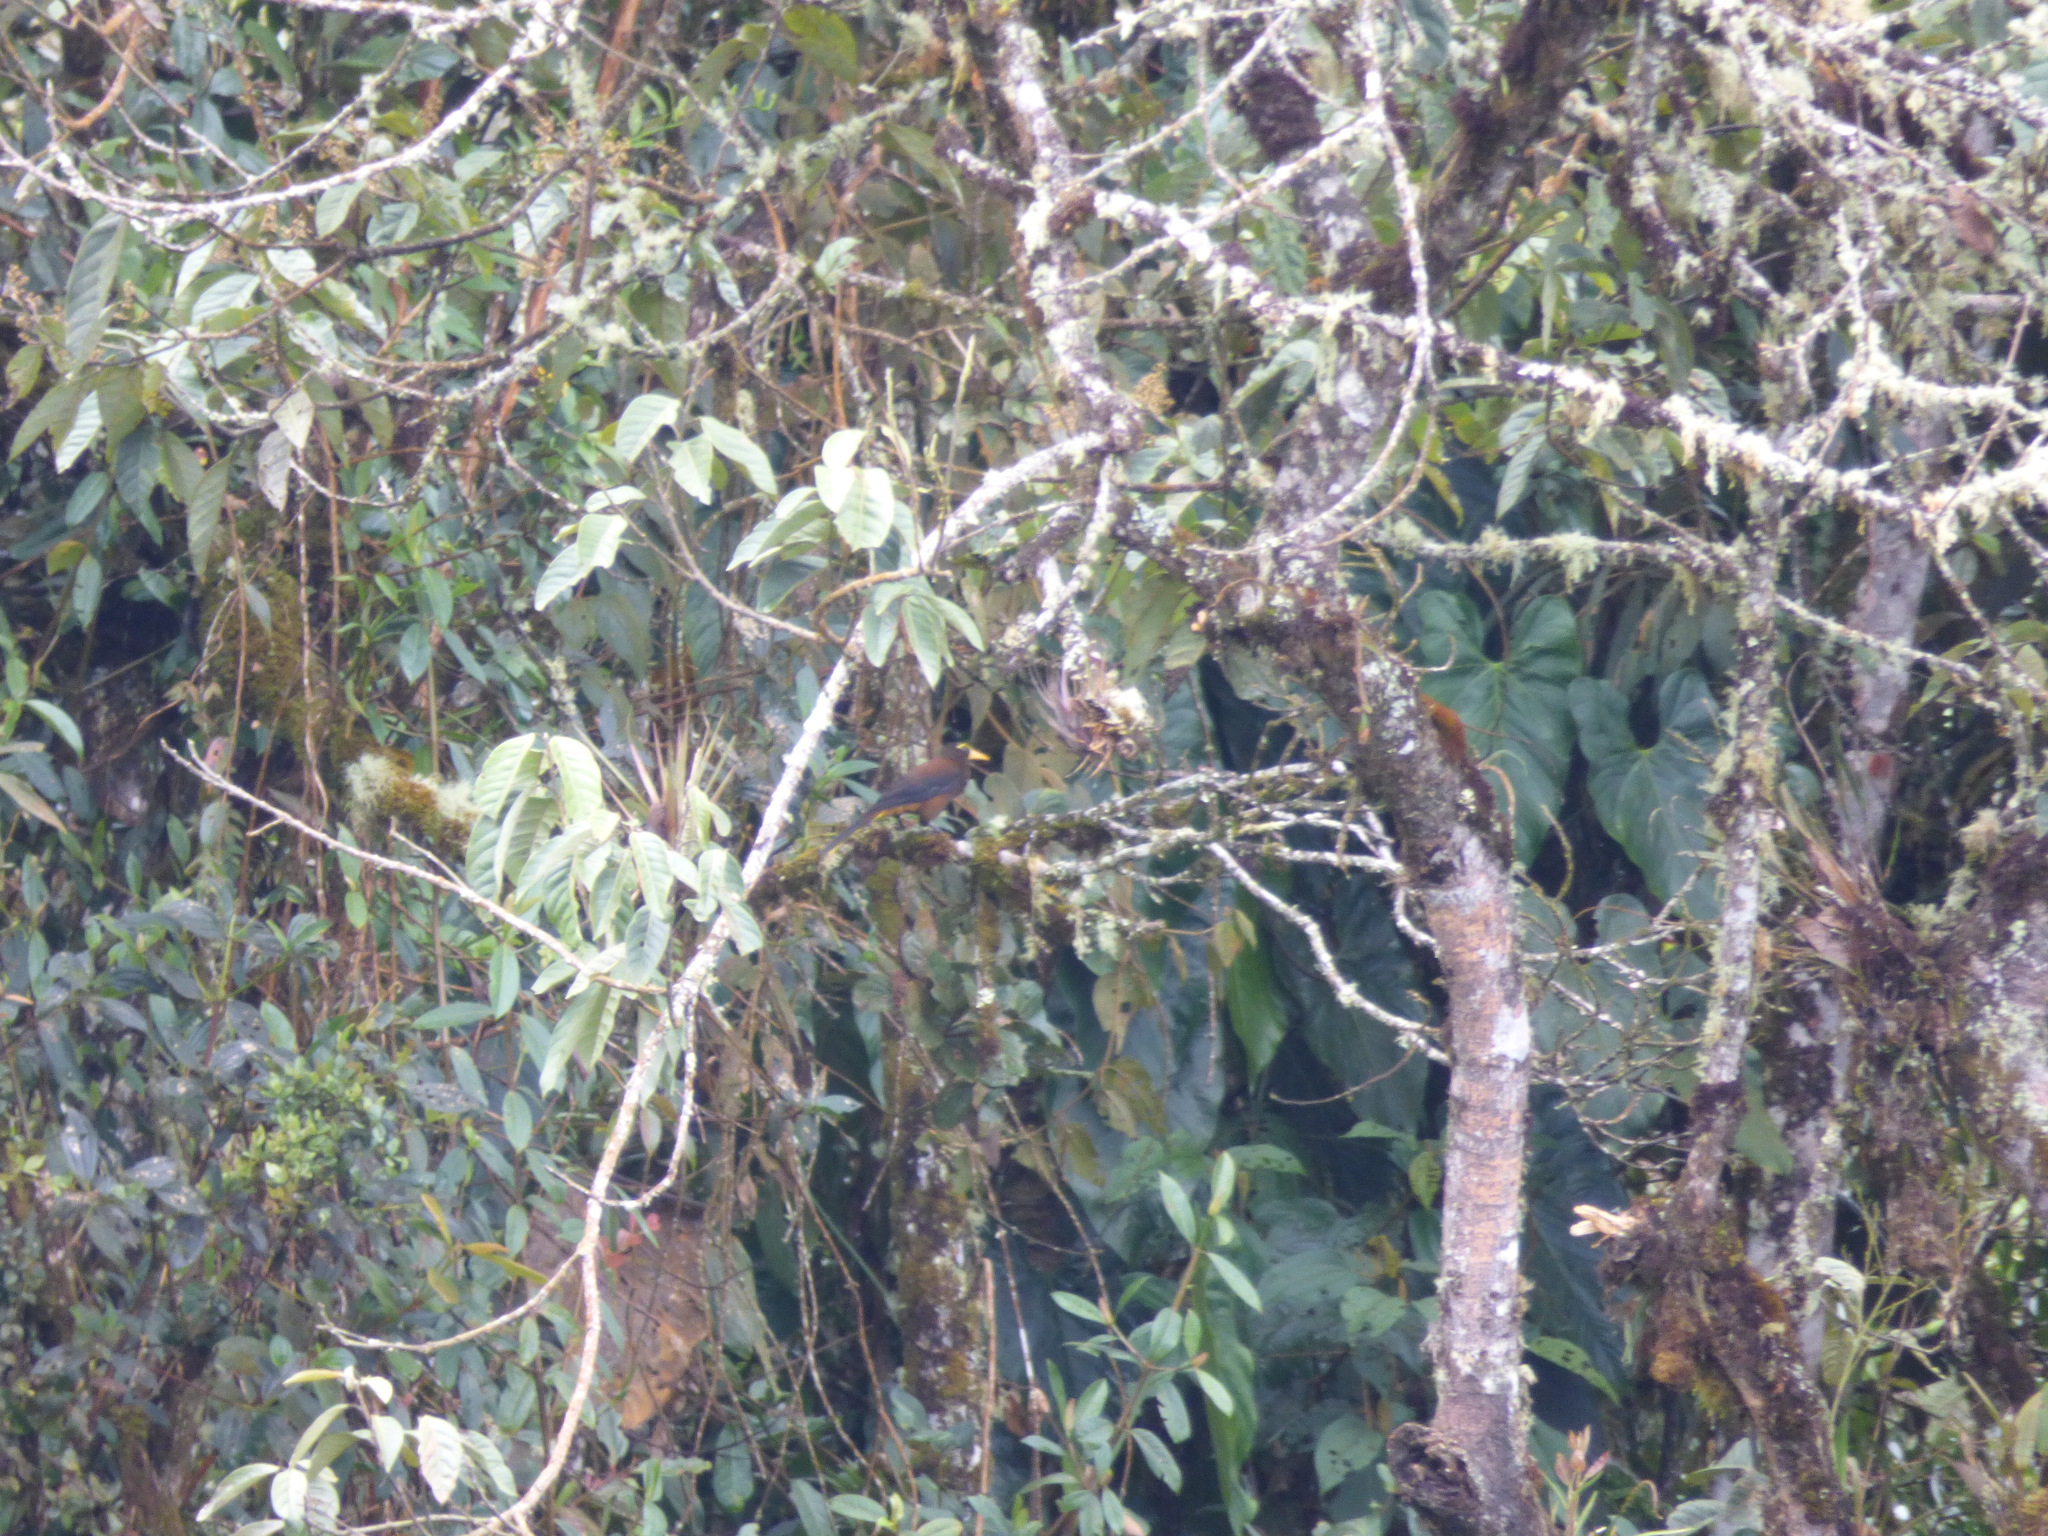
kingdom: Animalia
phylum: Chordata
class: Aves
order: Passeriformes
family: Icteridae
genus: Psarocolius
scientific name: Psarocolius angustifrons
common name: Russet-backed oropendola
